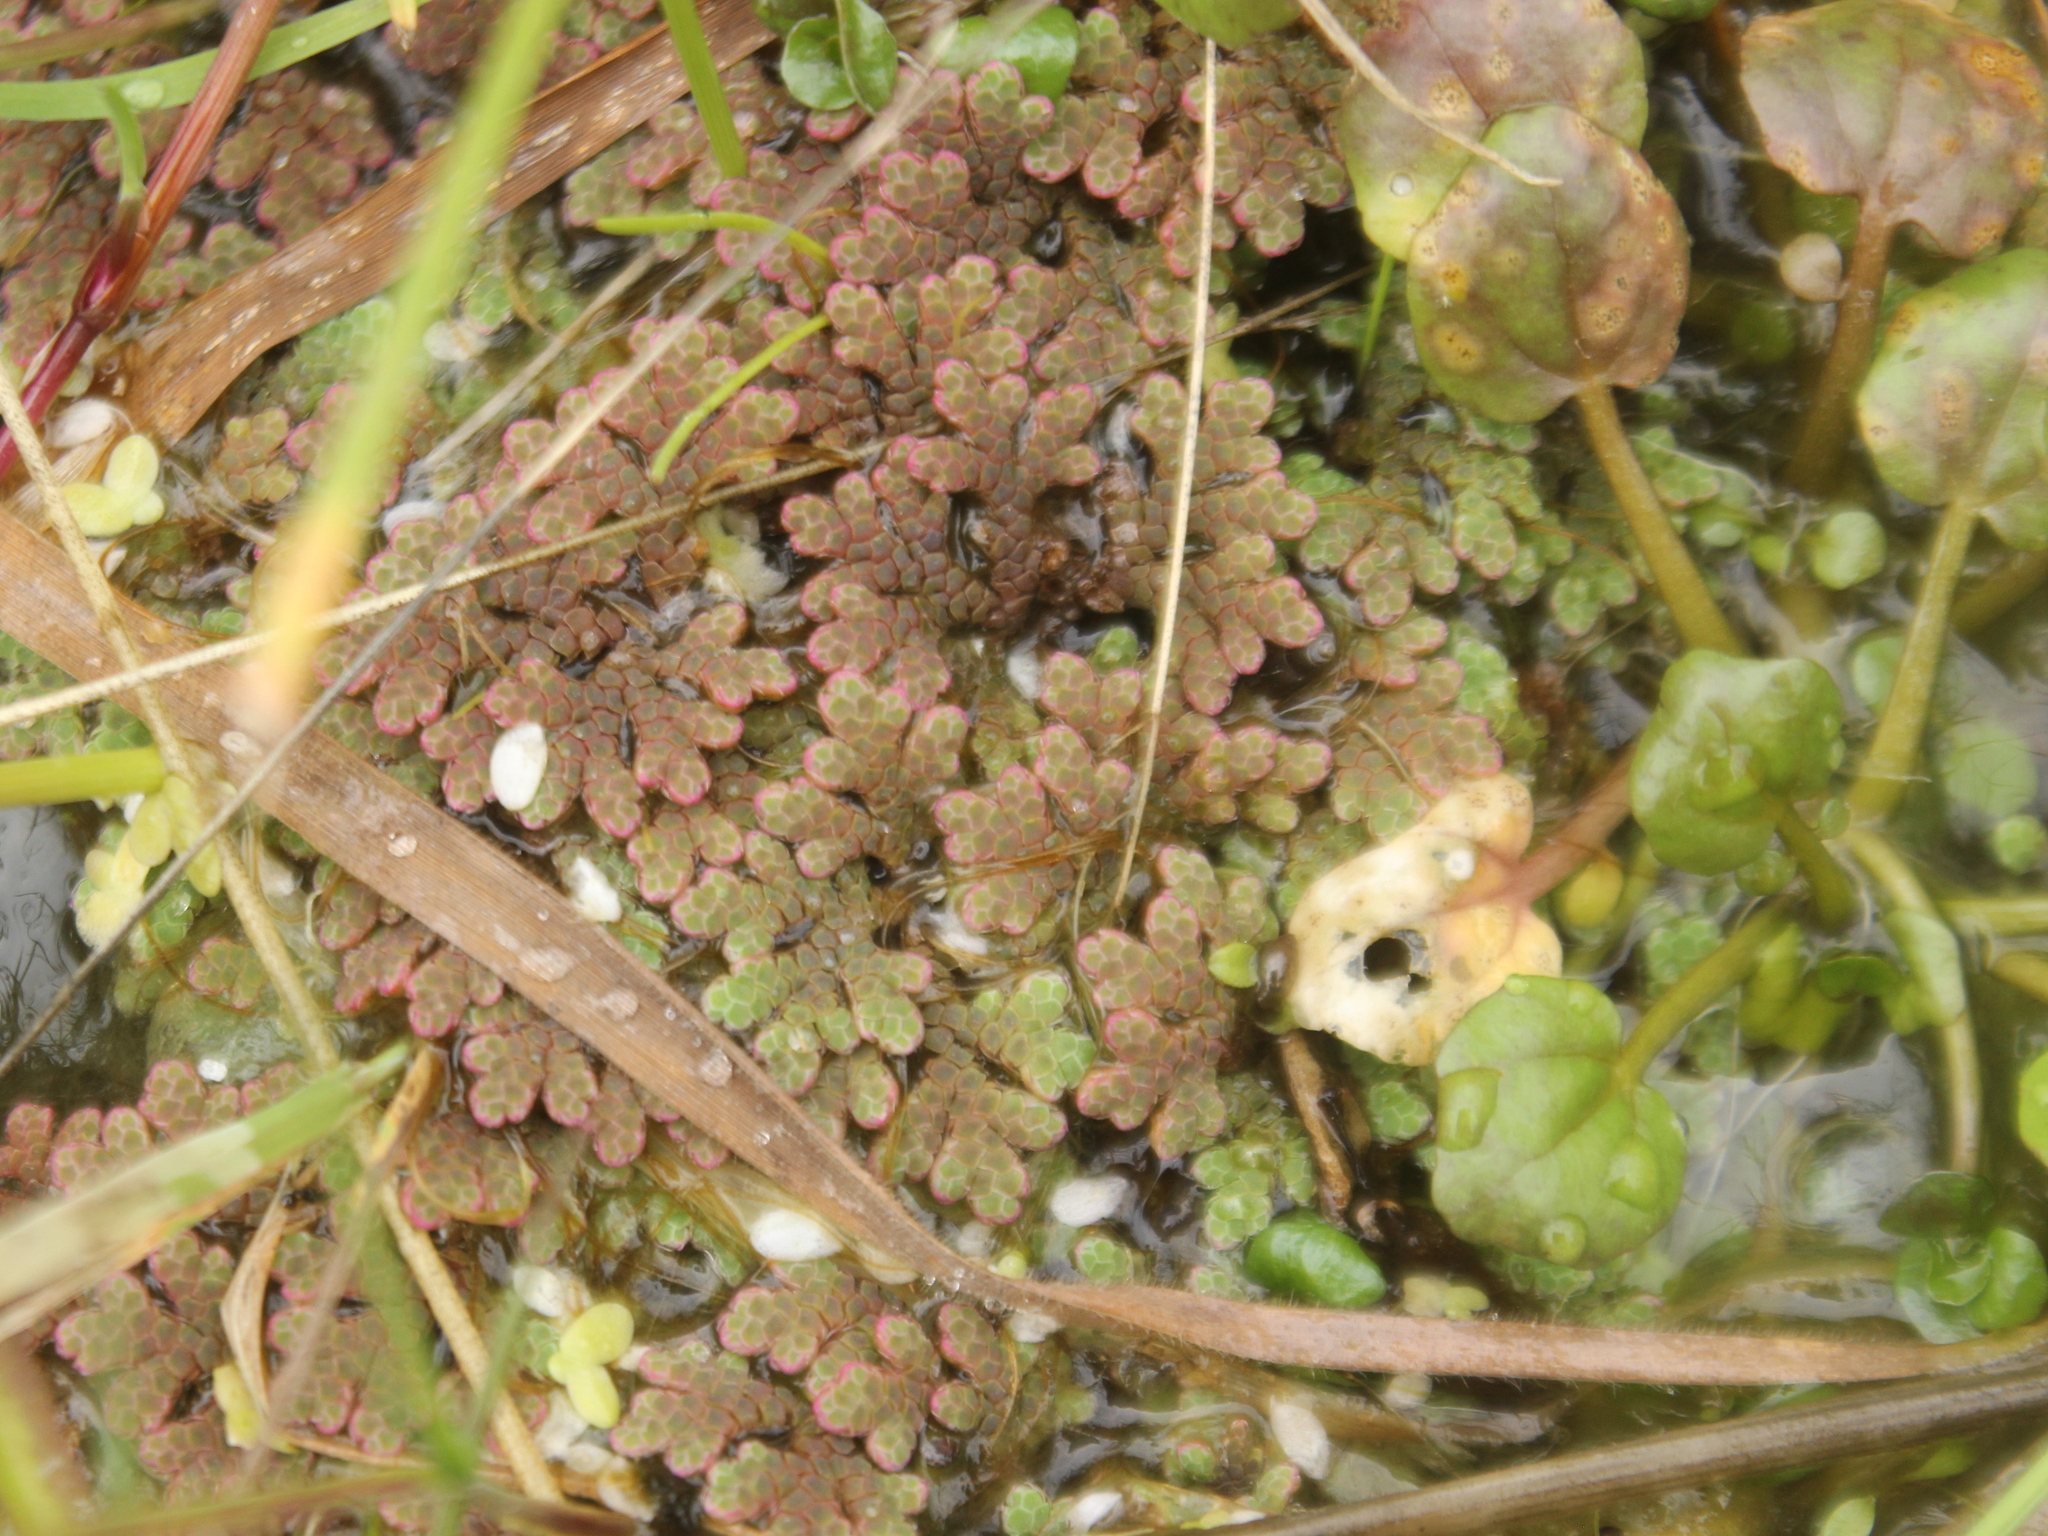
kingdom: Plantae
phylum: Tracheophyta
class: Polypodiopsida
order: Salviniales
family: Salviniaceae
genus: Azolla
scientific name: Azolla rubra
